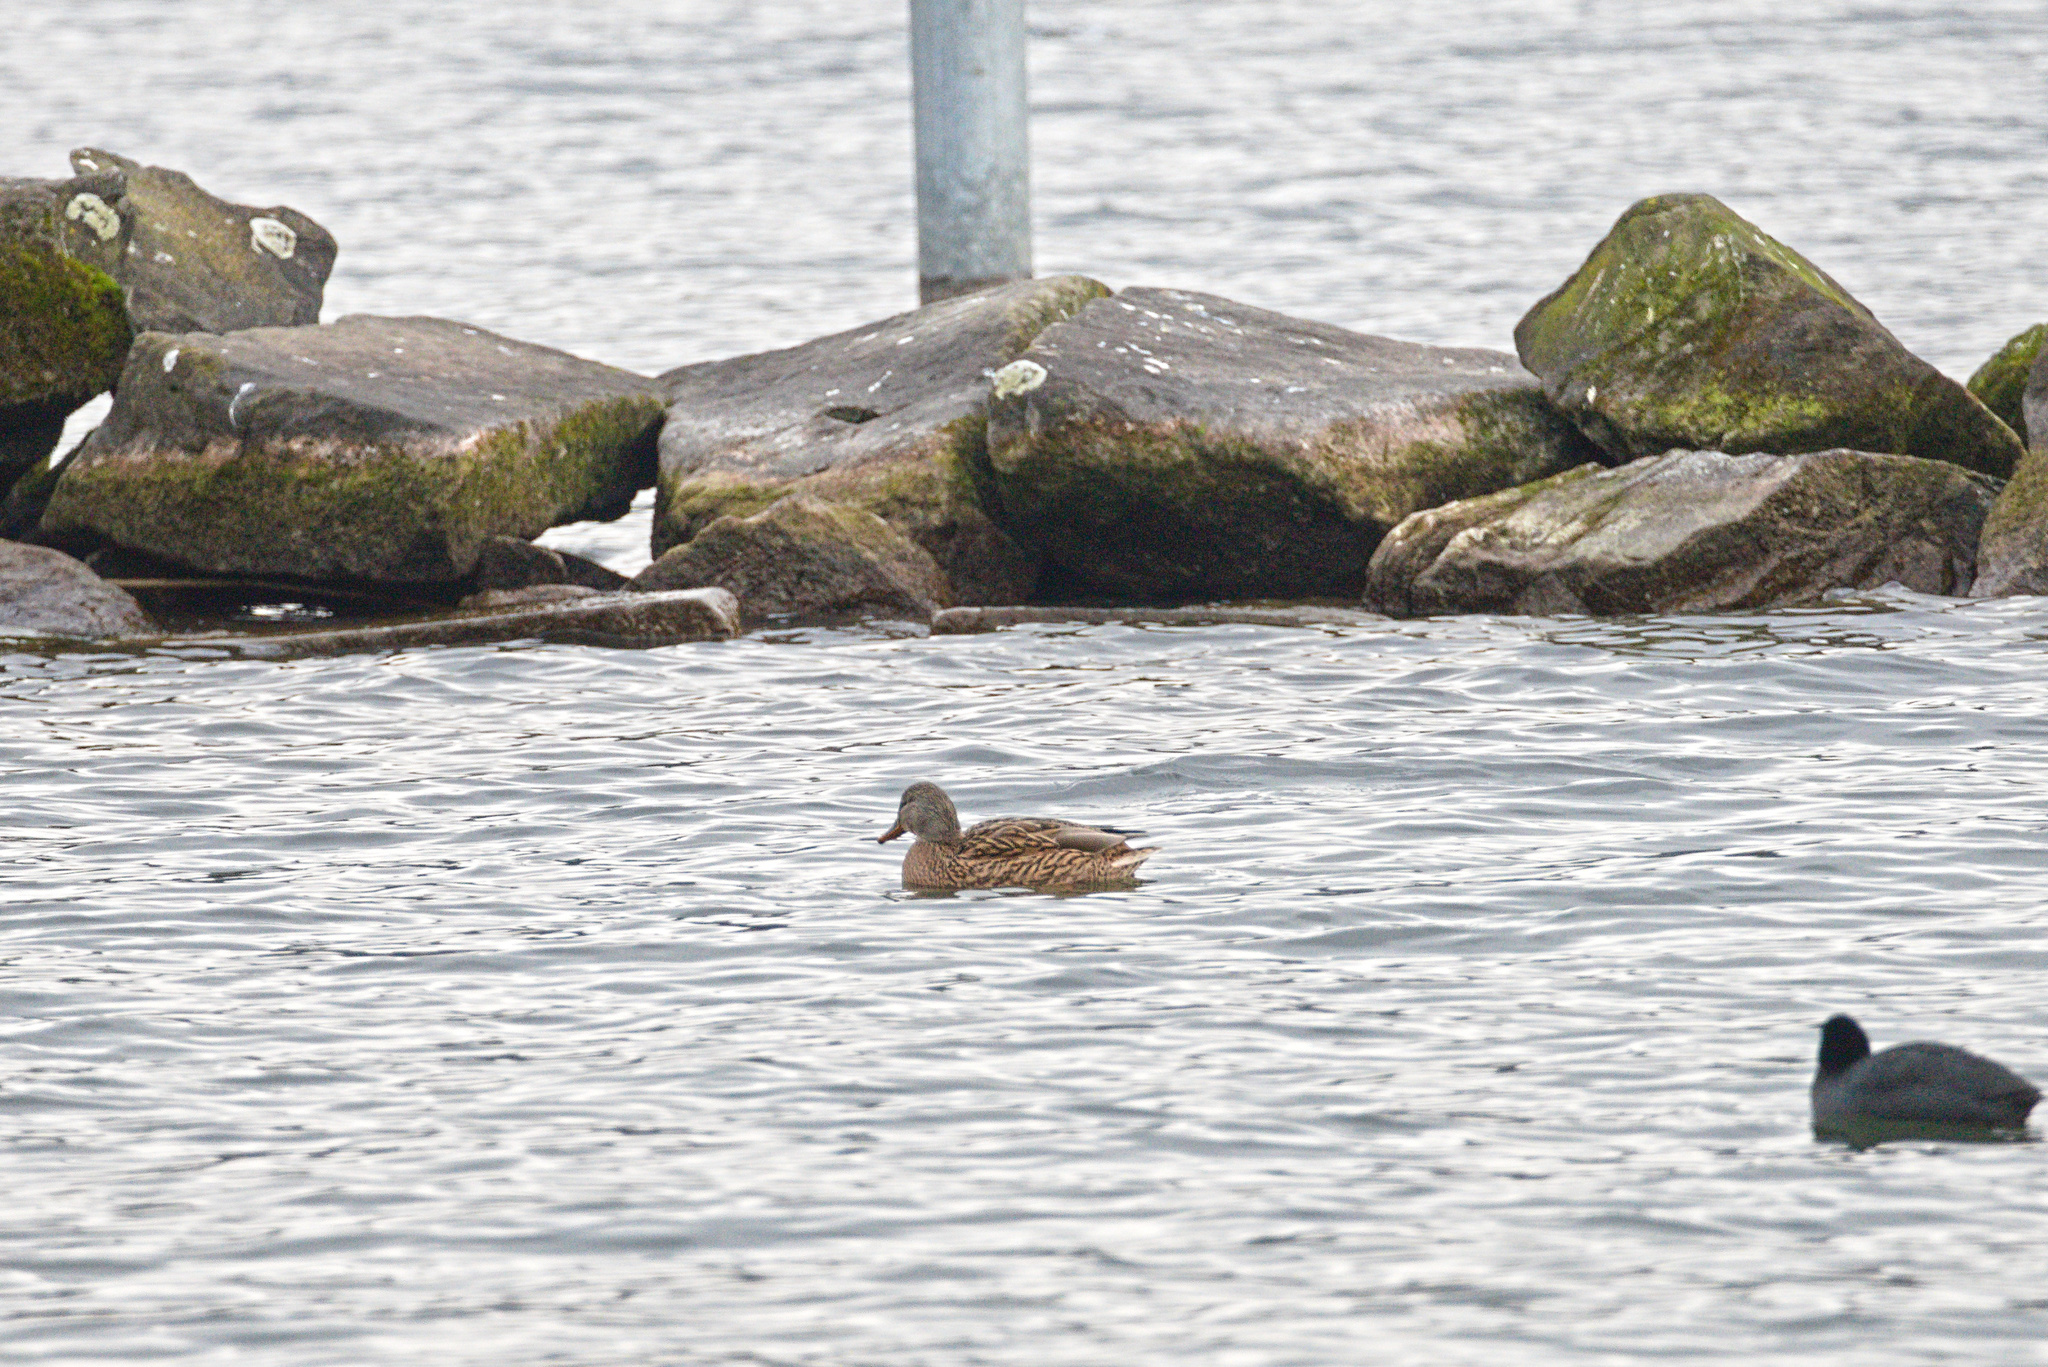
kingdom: Animalia
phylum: Chordata
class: Aves
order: Anseriformes
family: Anatidae
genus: Anas
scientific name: Anas platyrhynchos
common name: Mallard
